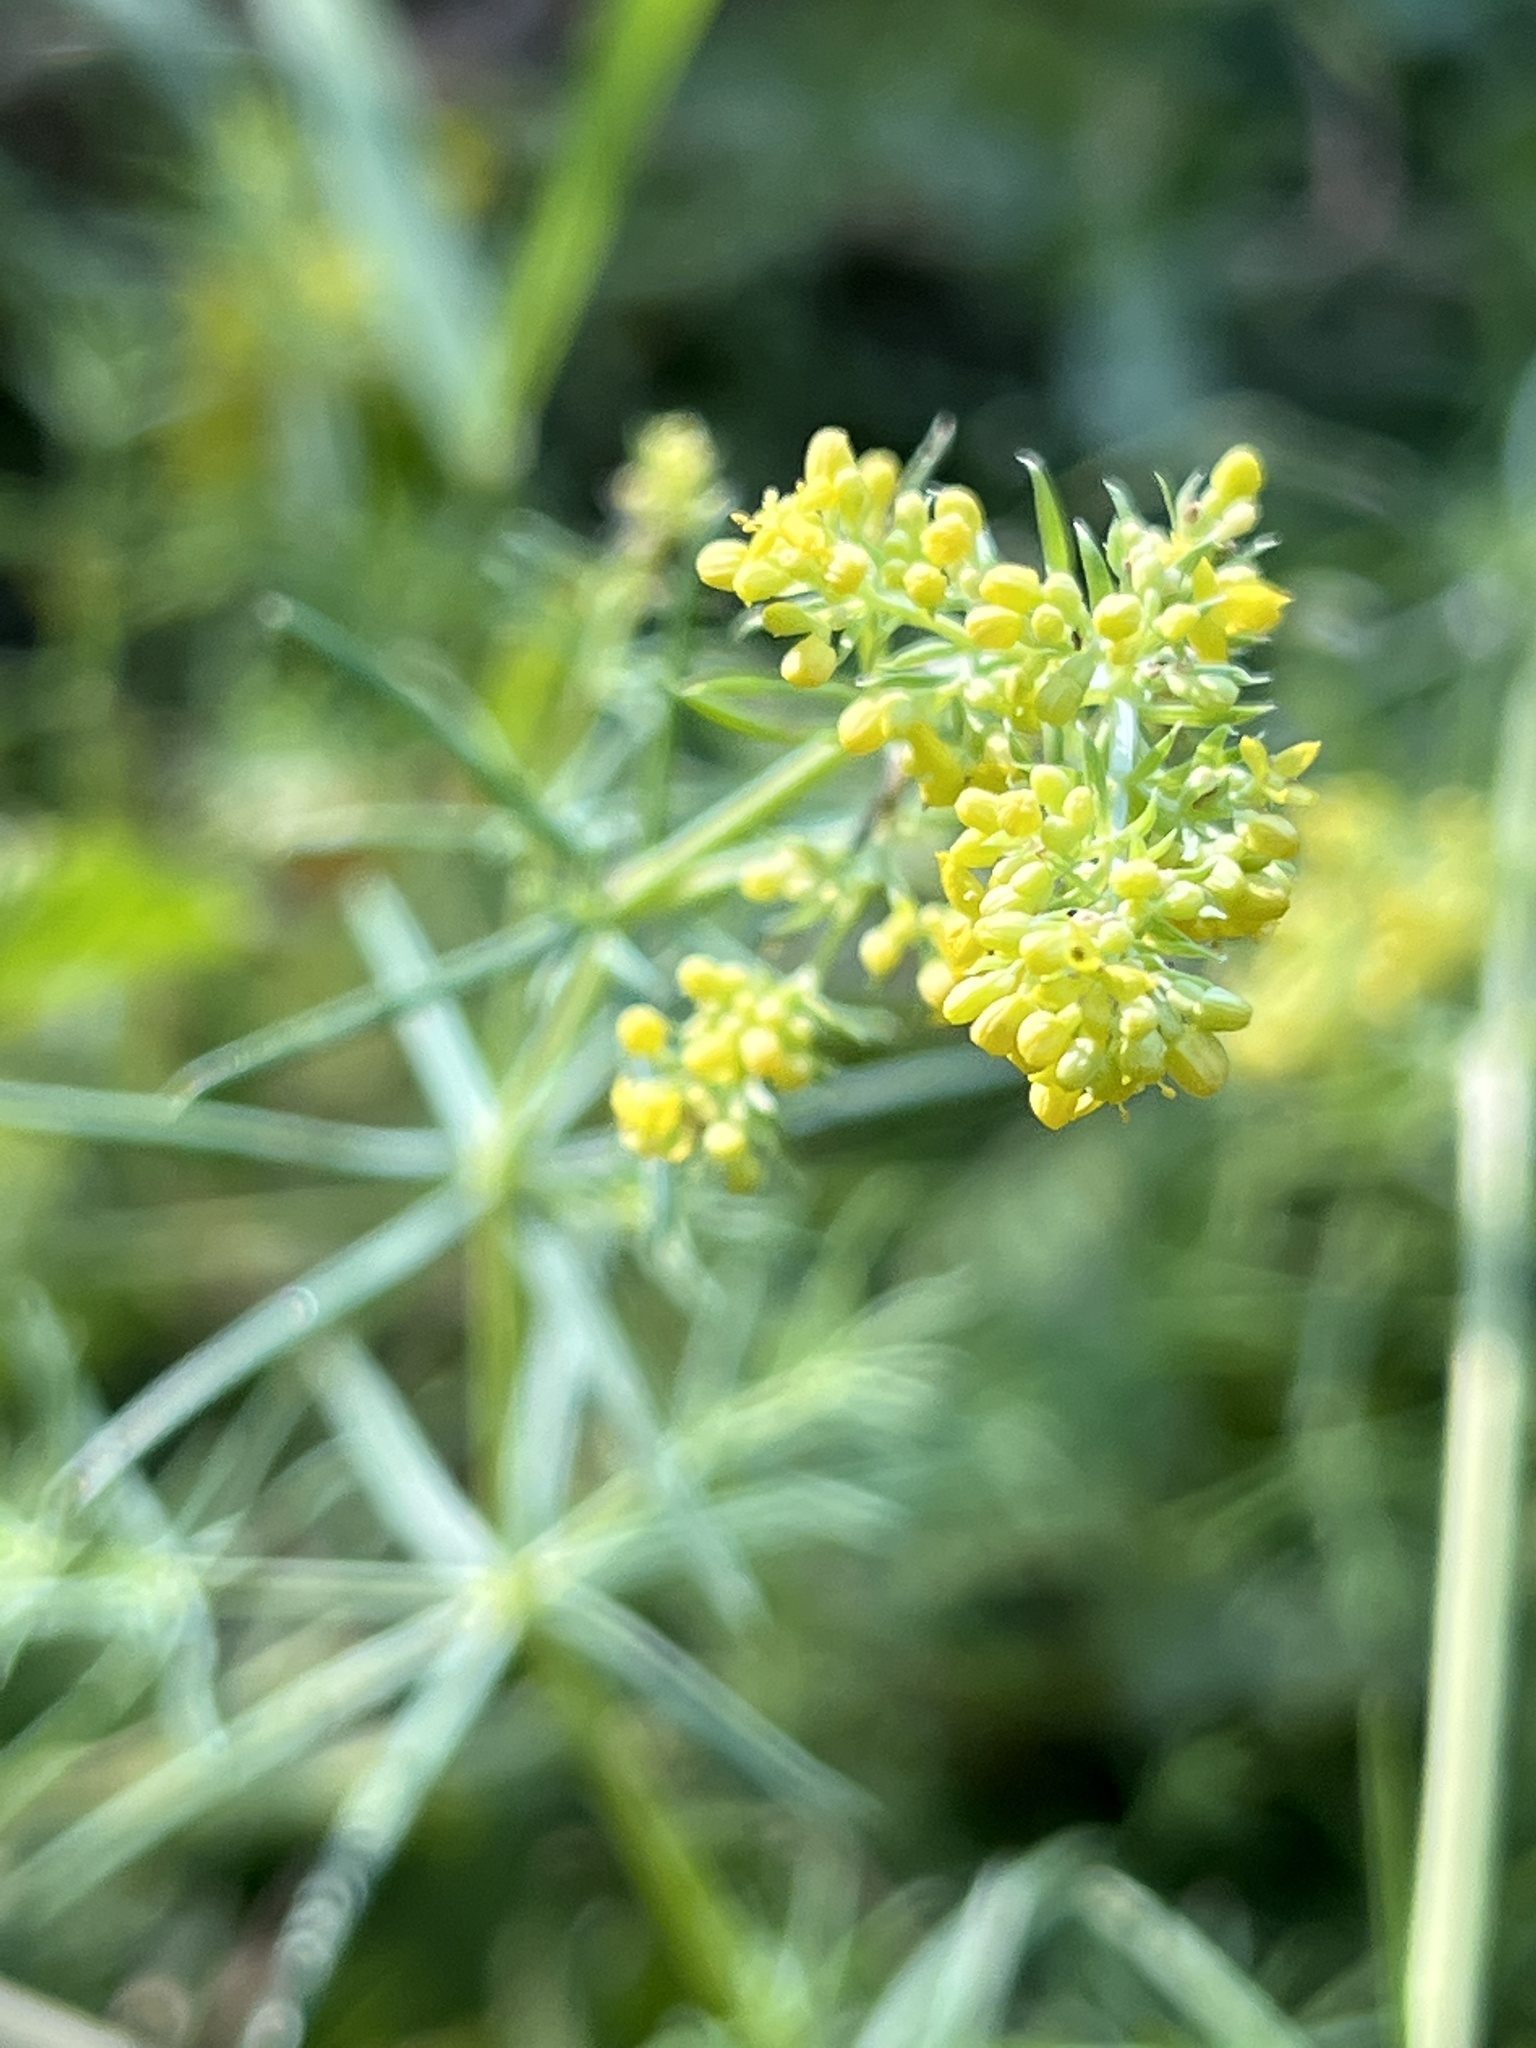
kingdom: Plantae
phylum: Tracheophyta
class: Magnoliopsida
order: Gentianales
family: Rubiaceae
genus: Galium
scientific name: Galium verum
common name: Lady's bedstraw
